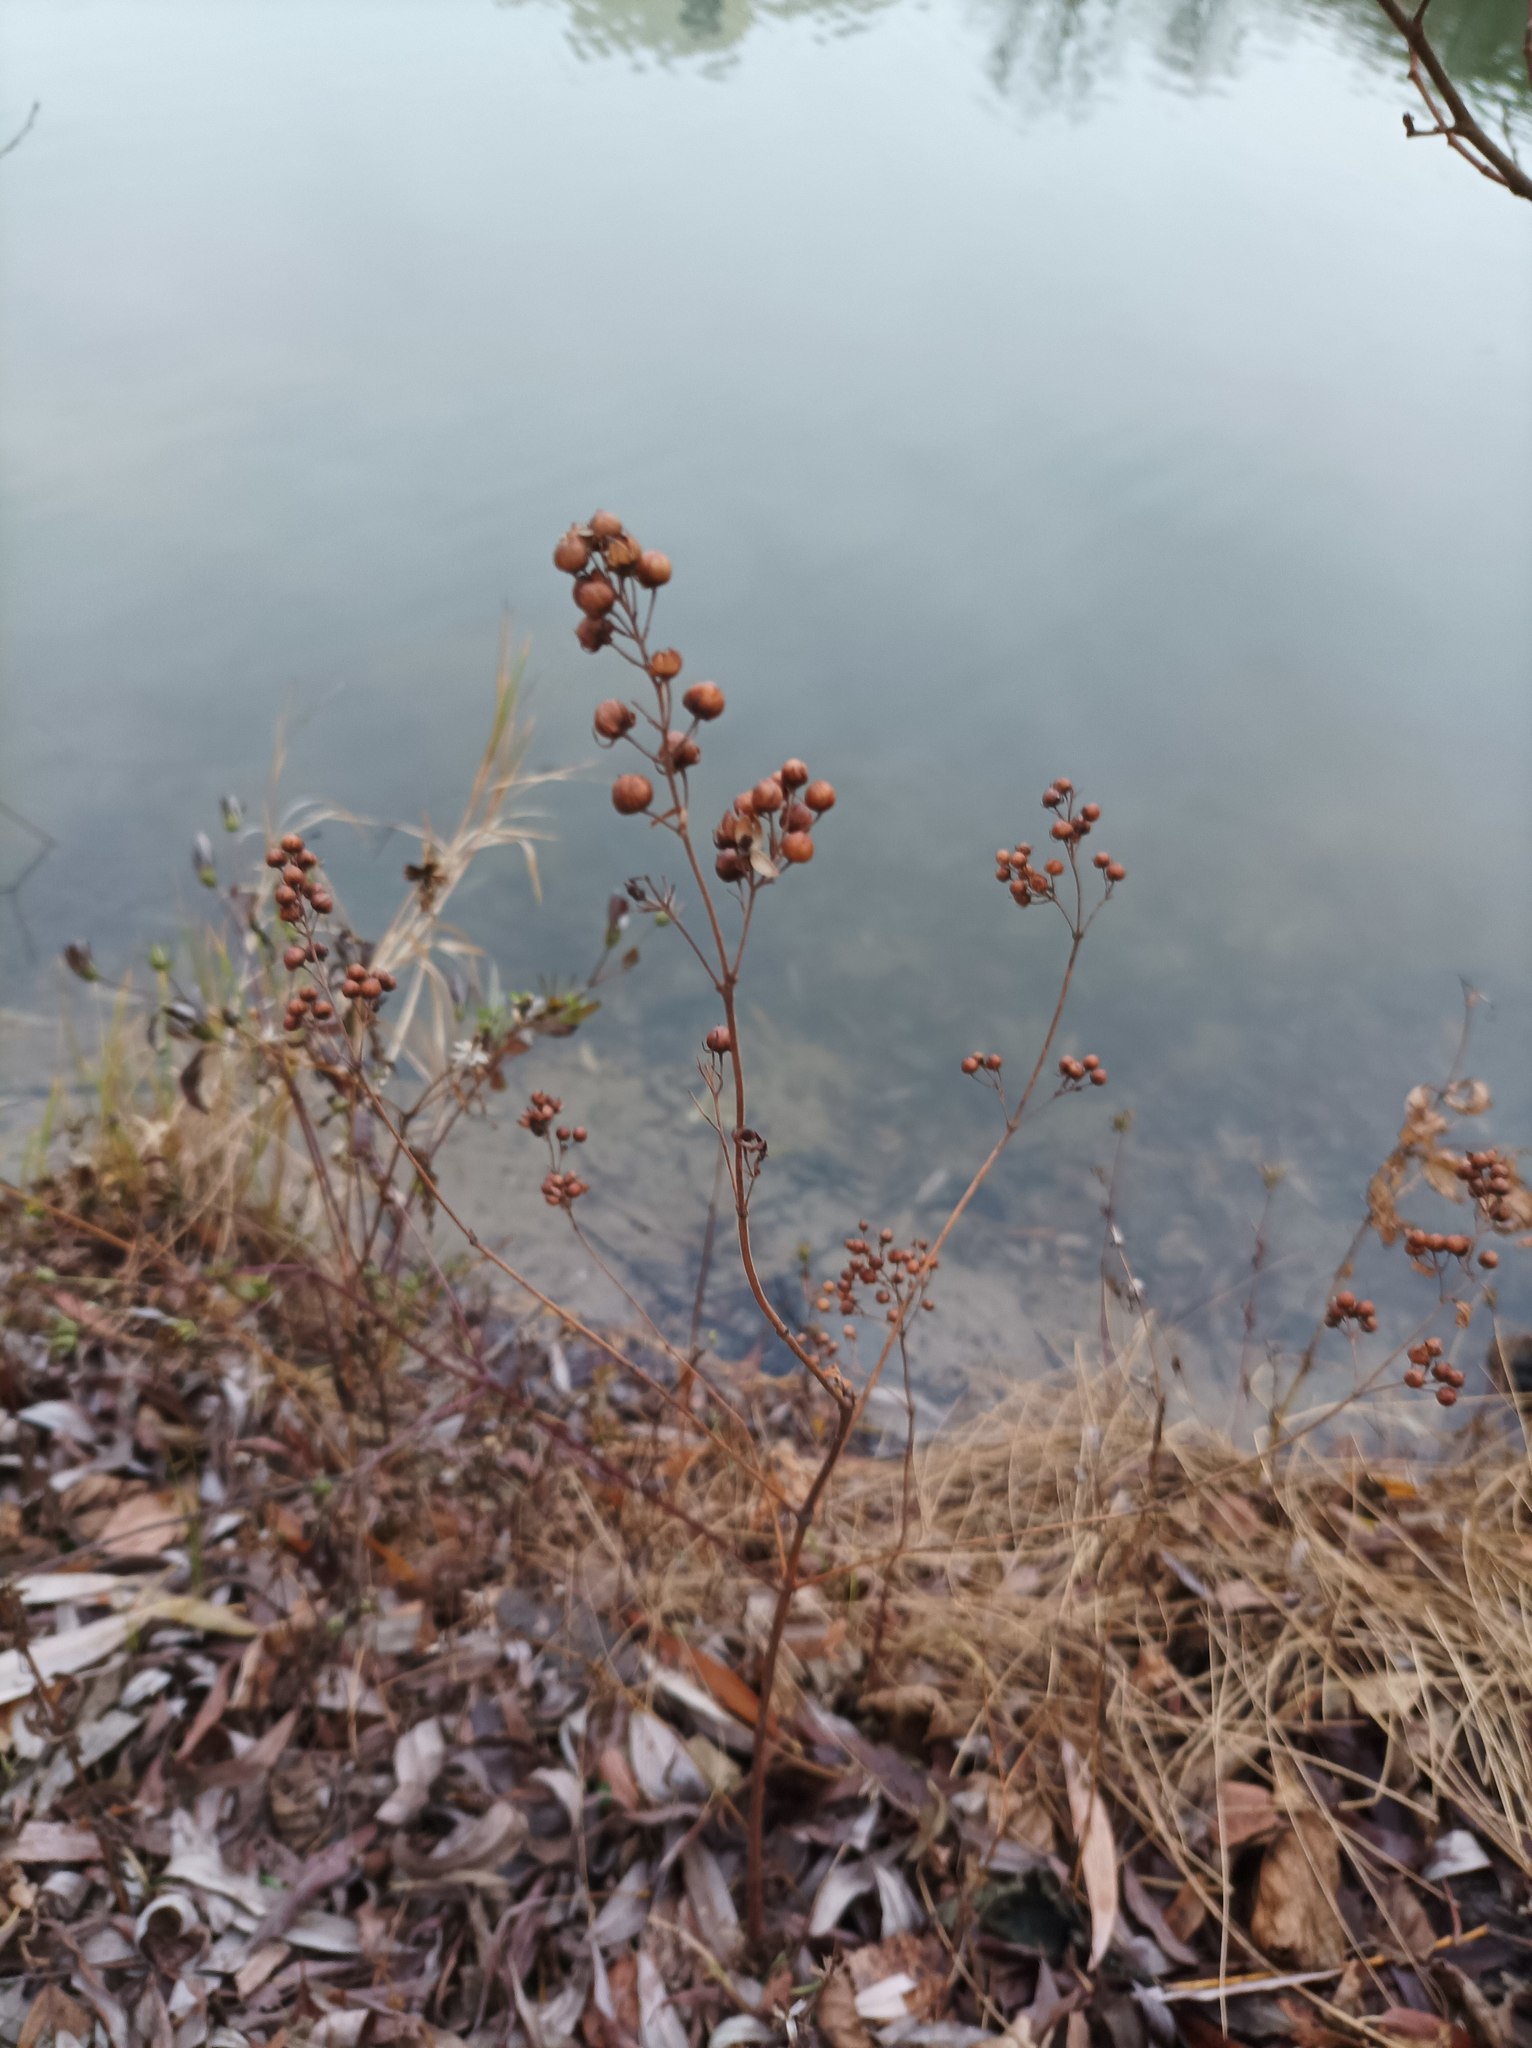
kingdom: Plantae
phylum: Tracheophyta
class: Magnoliopsida
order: Ericales
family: Primulaceae
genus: Lysimachia
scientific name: Lysimachia vulgaris
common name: Yellow loosestrife
